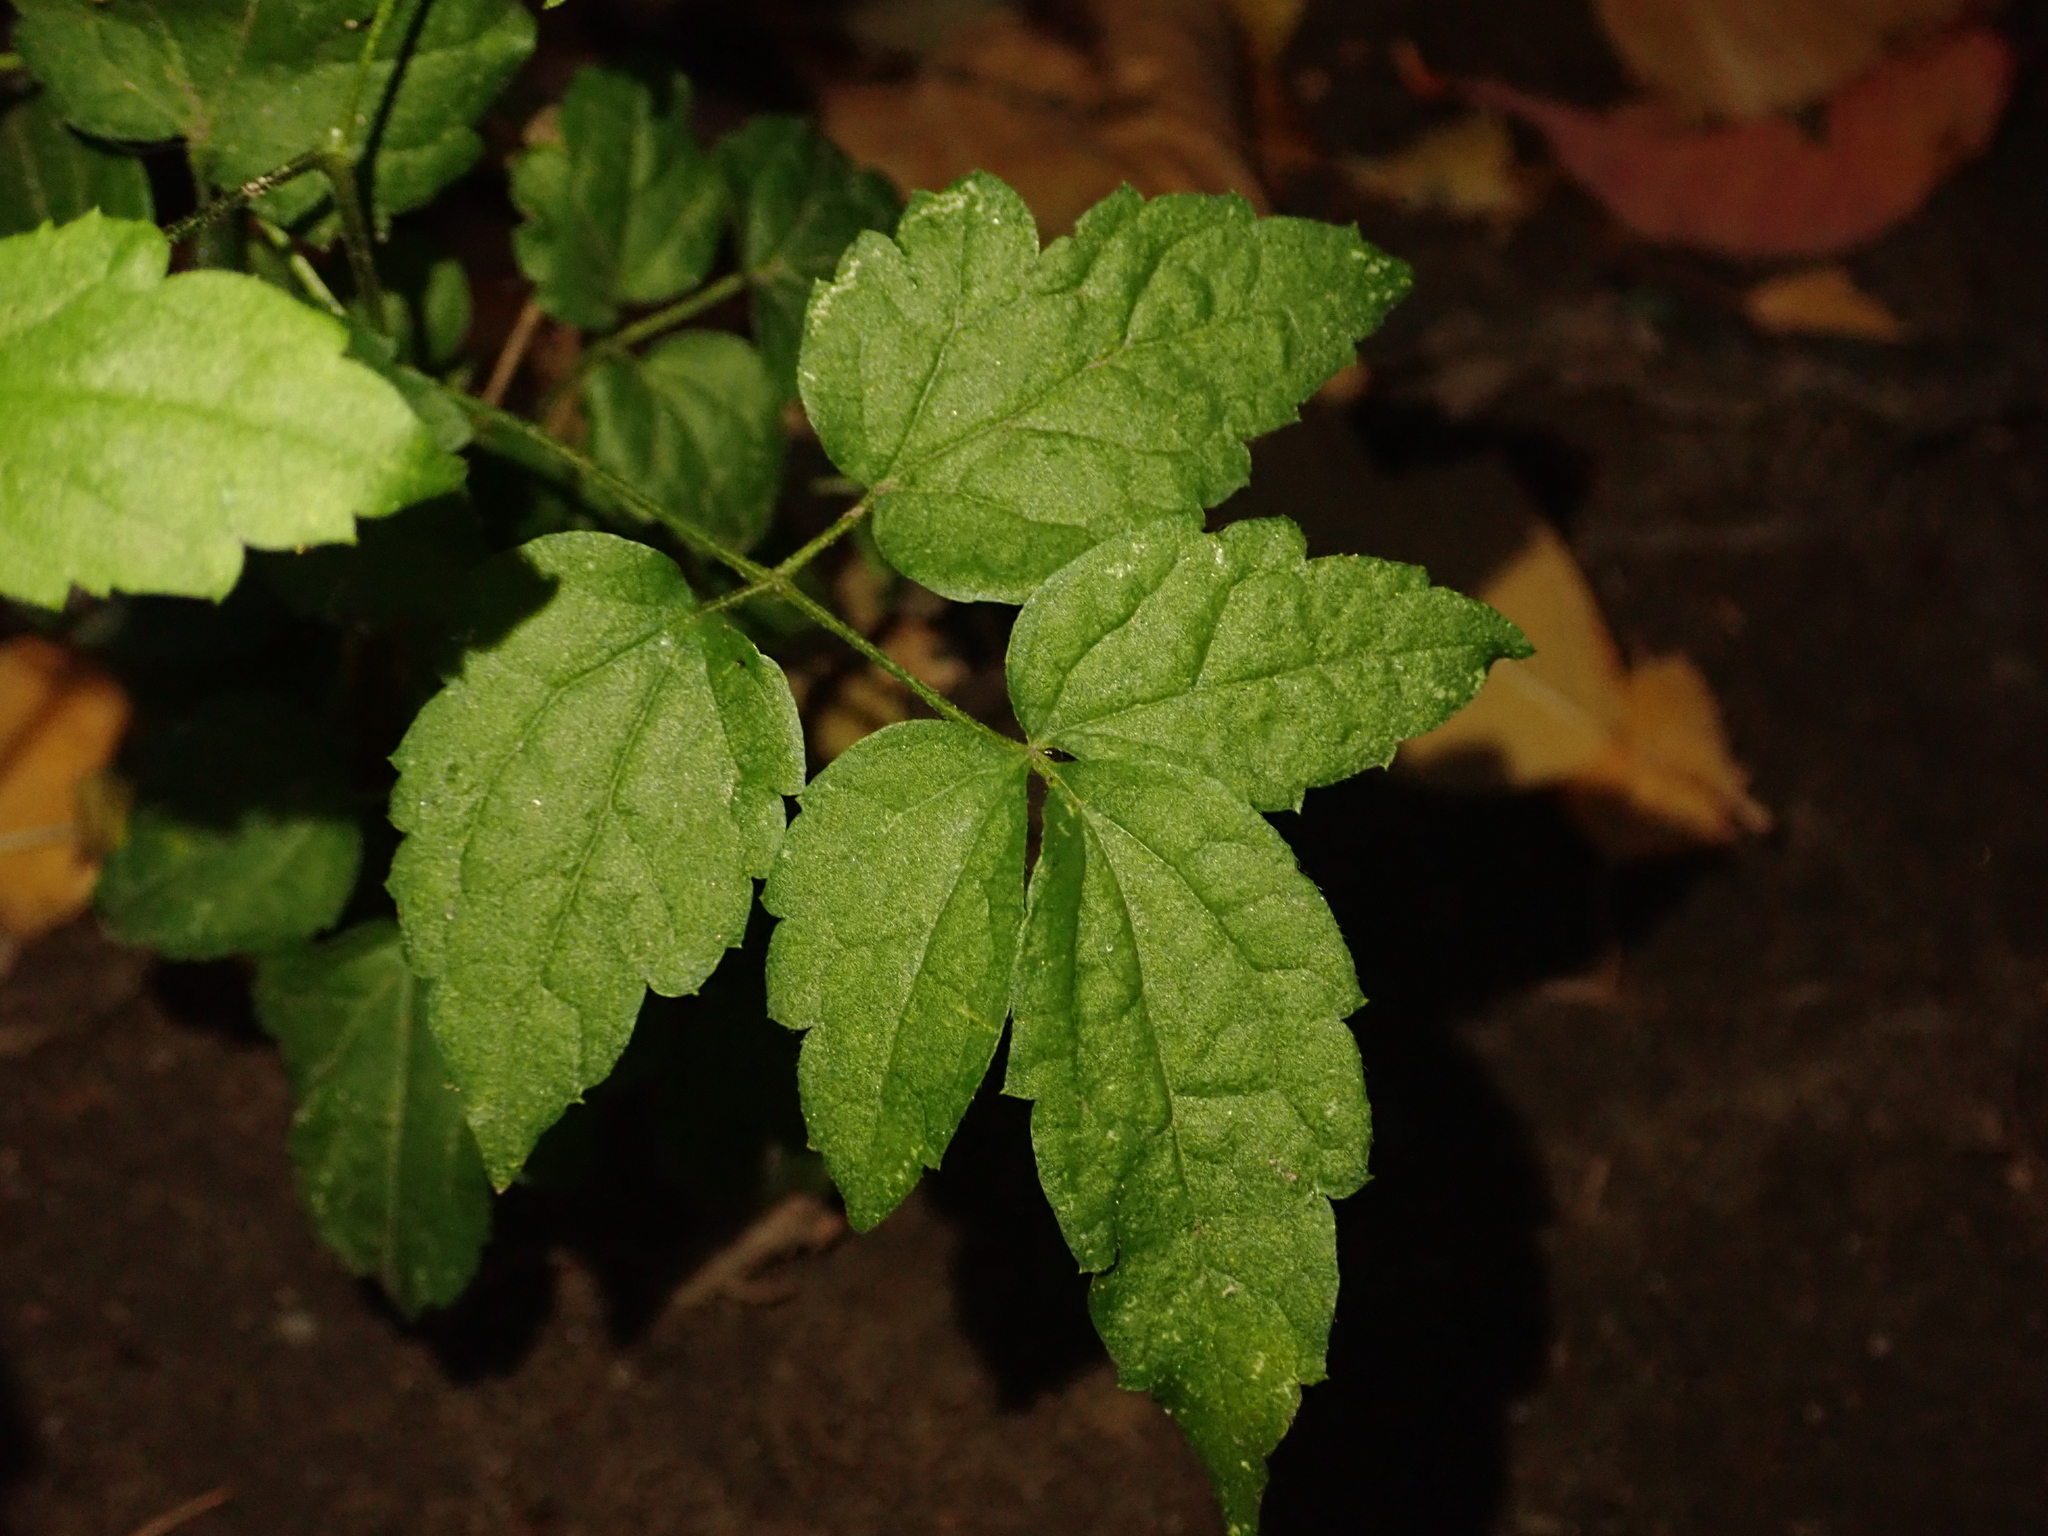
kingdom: Plantae
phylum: Tracheophyta
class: Magnoliopsida
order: Ranunculales
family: Ranunculaceae
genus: Clematis
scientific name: Clematis vitalba
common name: Evergreen clematis
